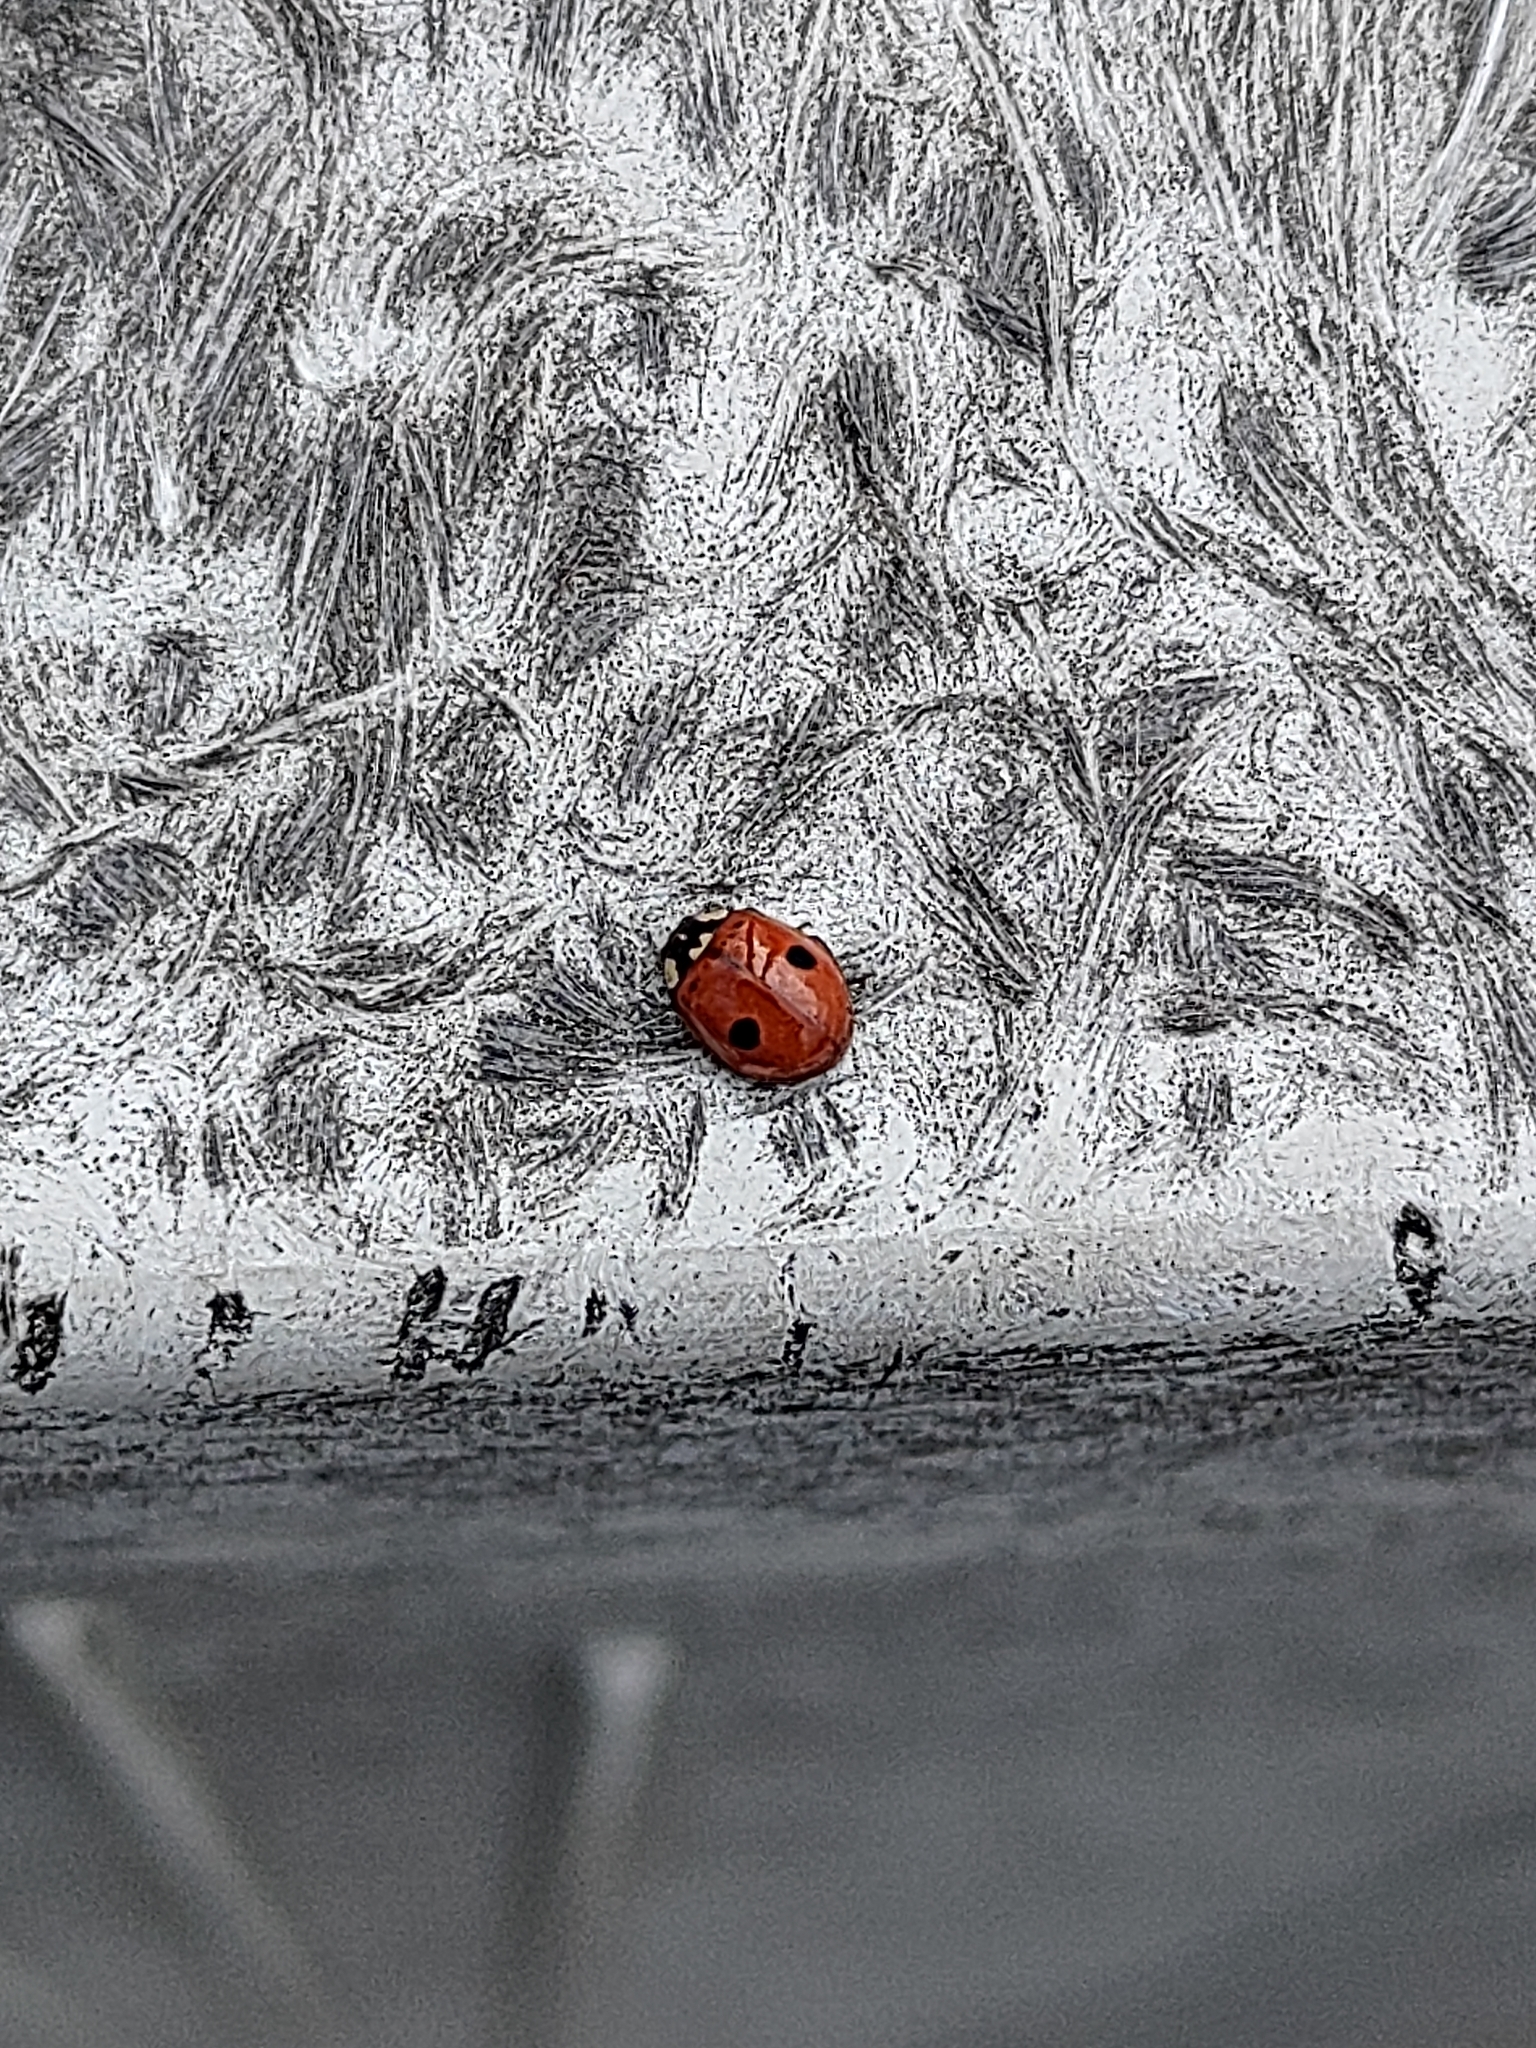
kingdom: Animalia
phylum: Arthropoda
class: Insecta
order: Coleoptera
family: Coccinellidae
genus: Adalia
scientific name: Adalia bipunctata
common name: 2-spot ladybird
